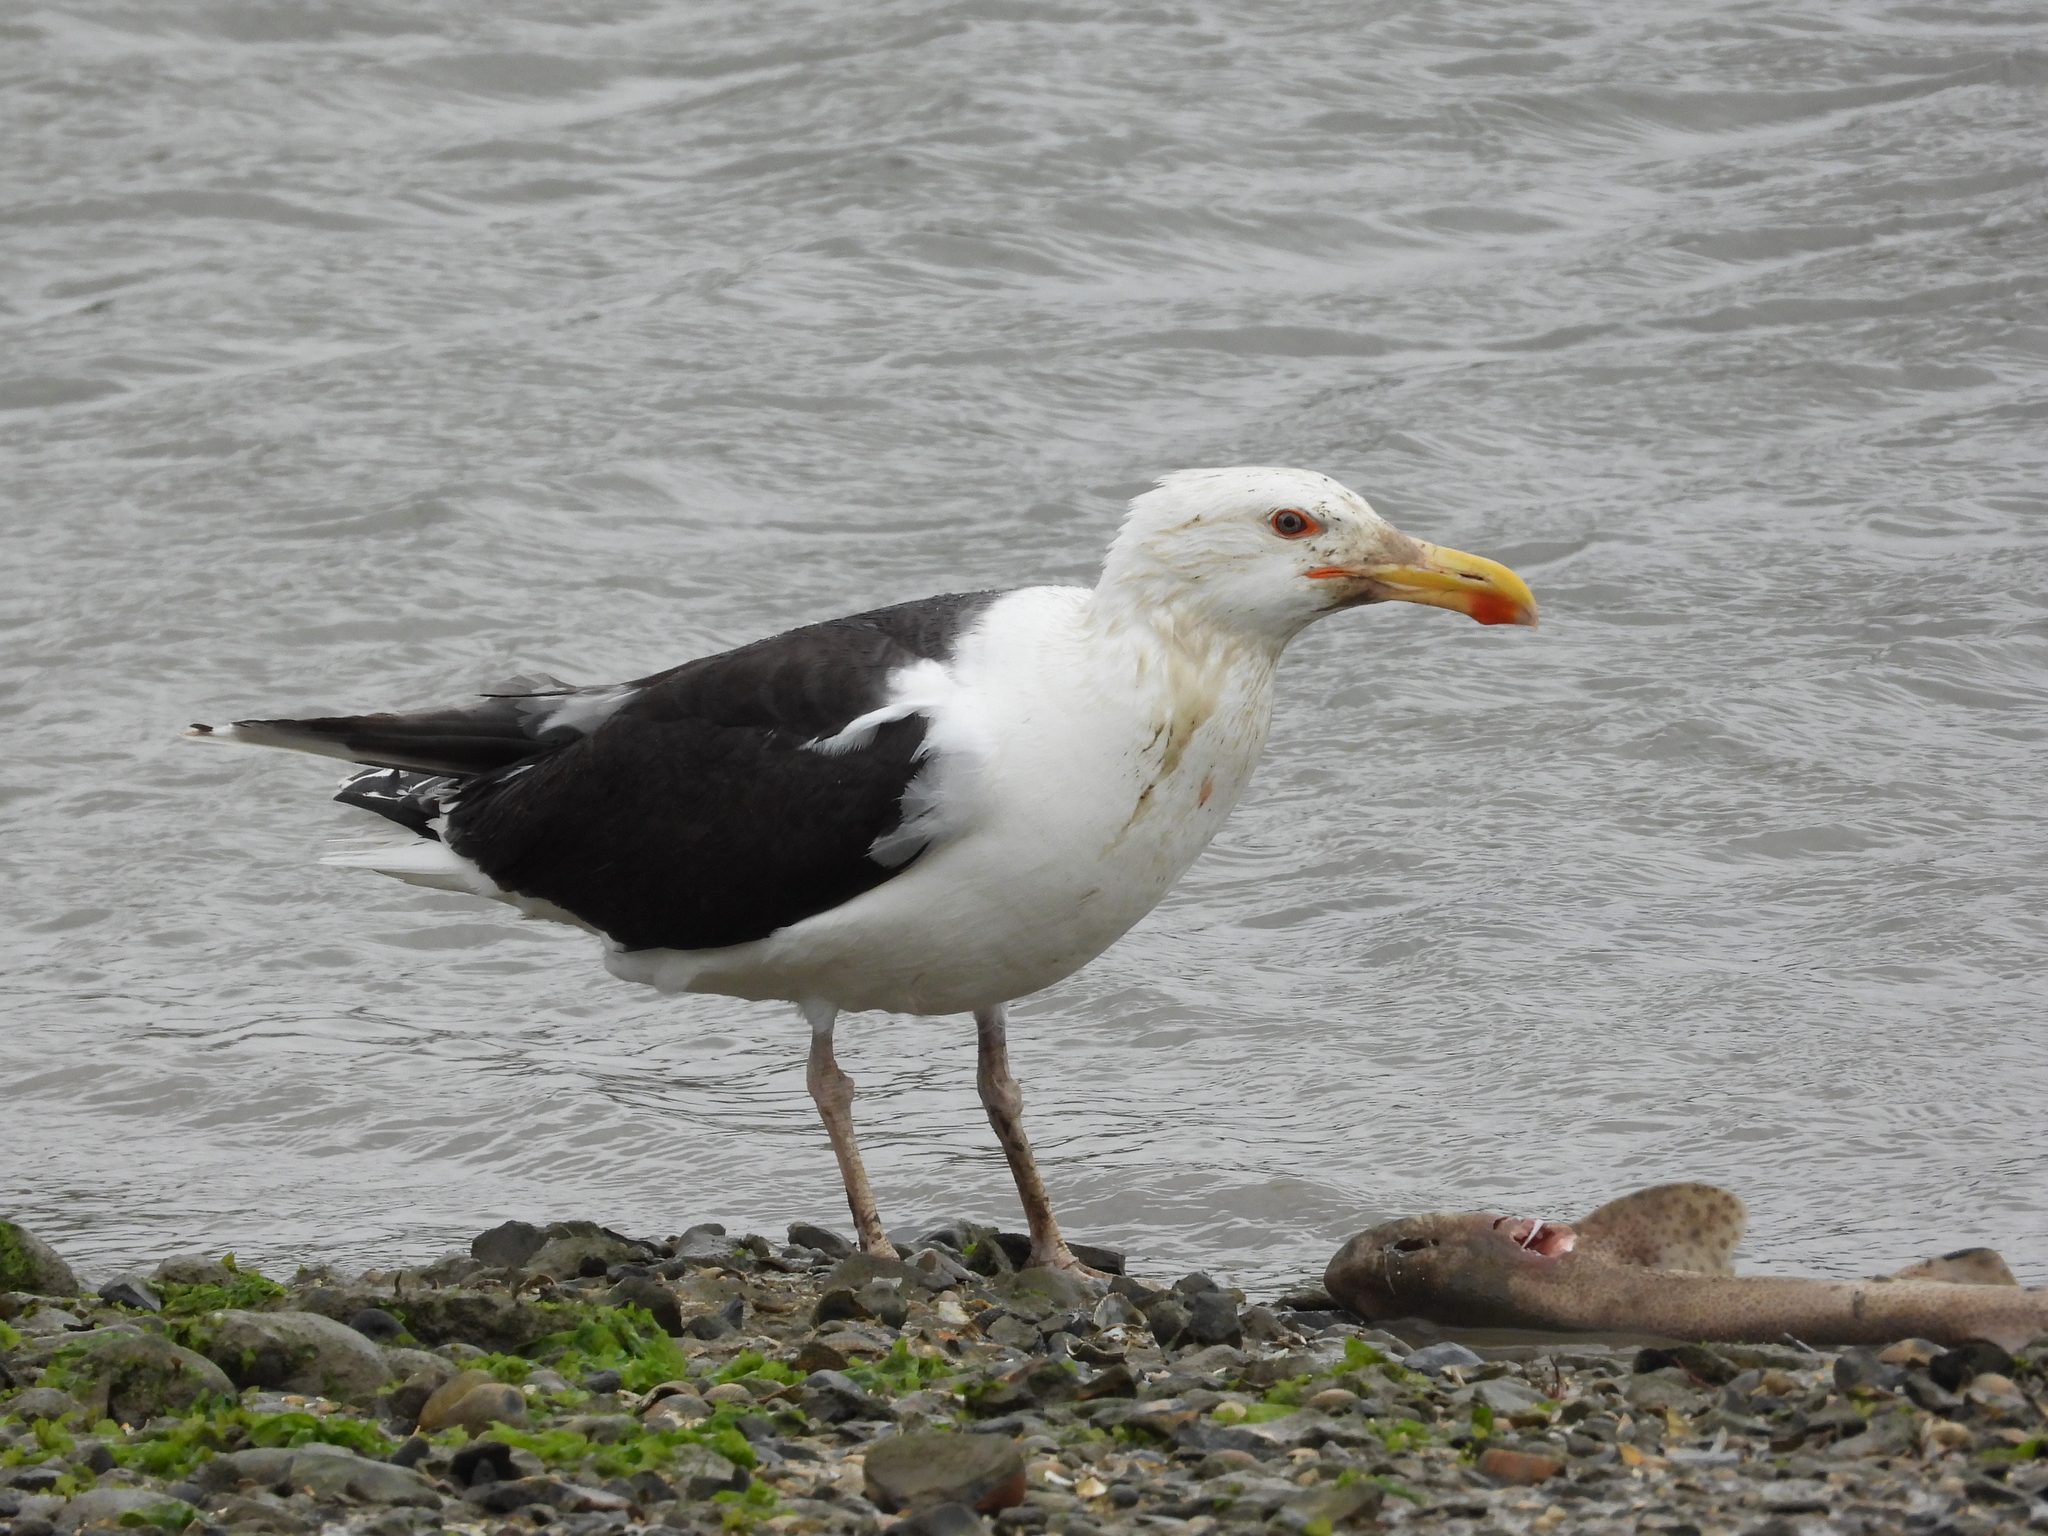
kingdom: Animalia
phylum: Chordata
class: Aves
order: Charadriiformes
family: Laridae
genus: Larus
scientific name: Larus marinus
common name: Great black-backed gull
